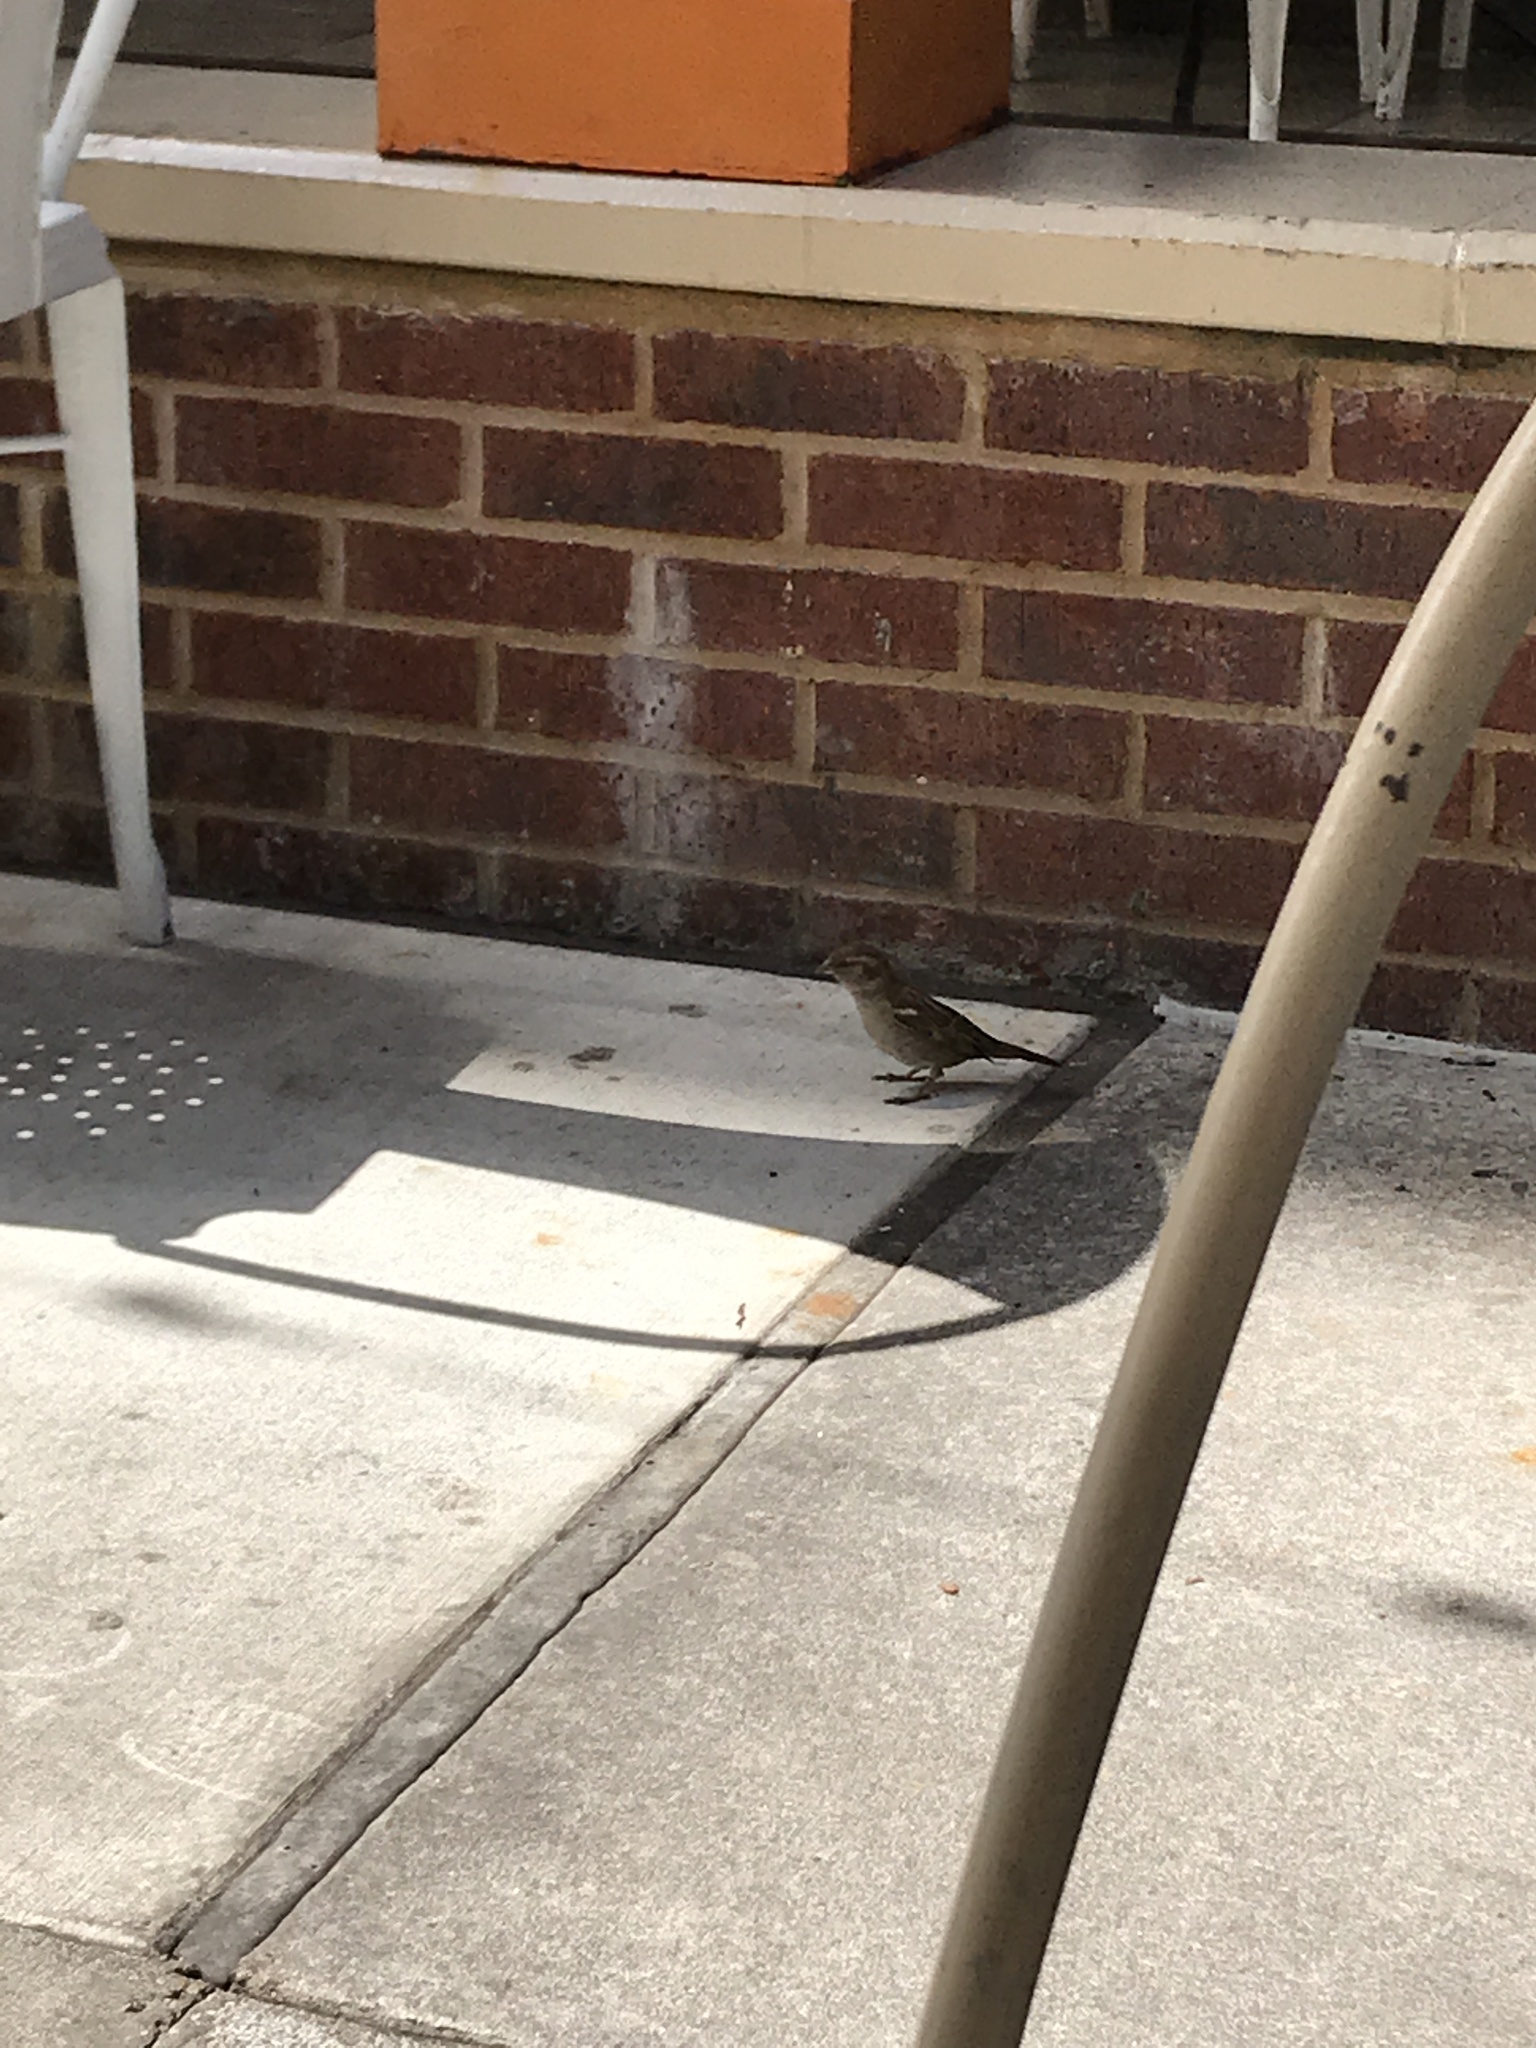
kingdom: Animalia
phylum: Chordata
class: Aves
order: Passeriformes
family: Passeridae
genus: Passer
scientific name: Passer domesticus
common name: House sparrow
